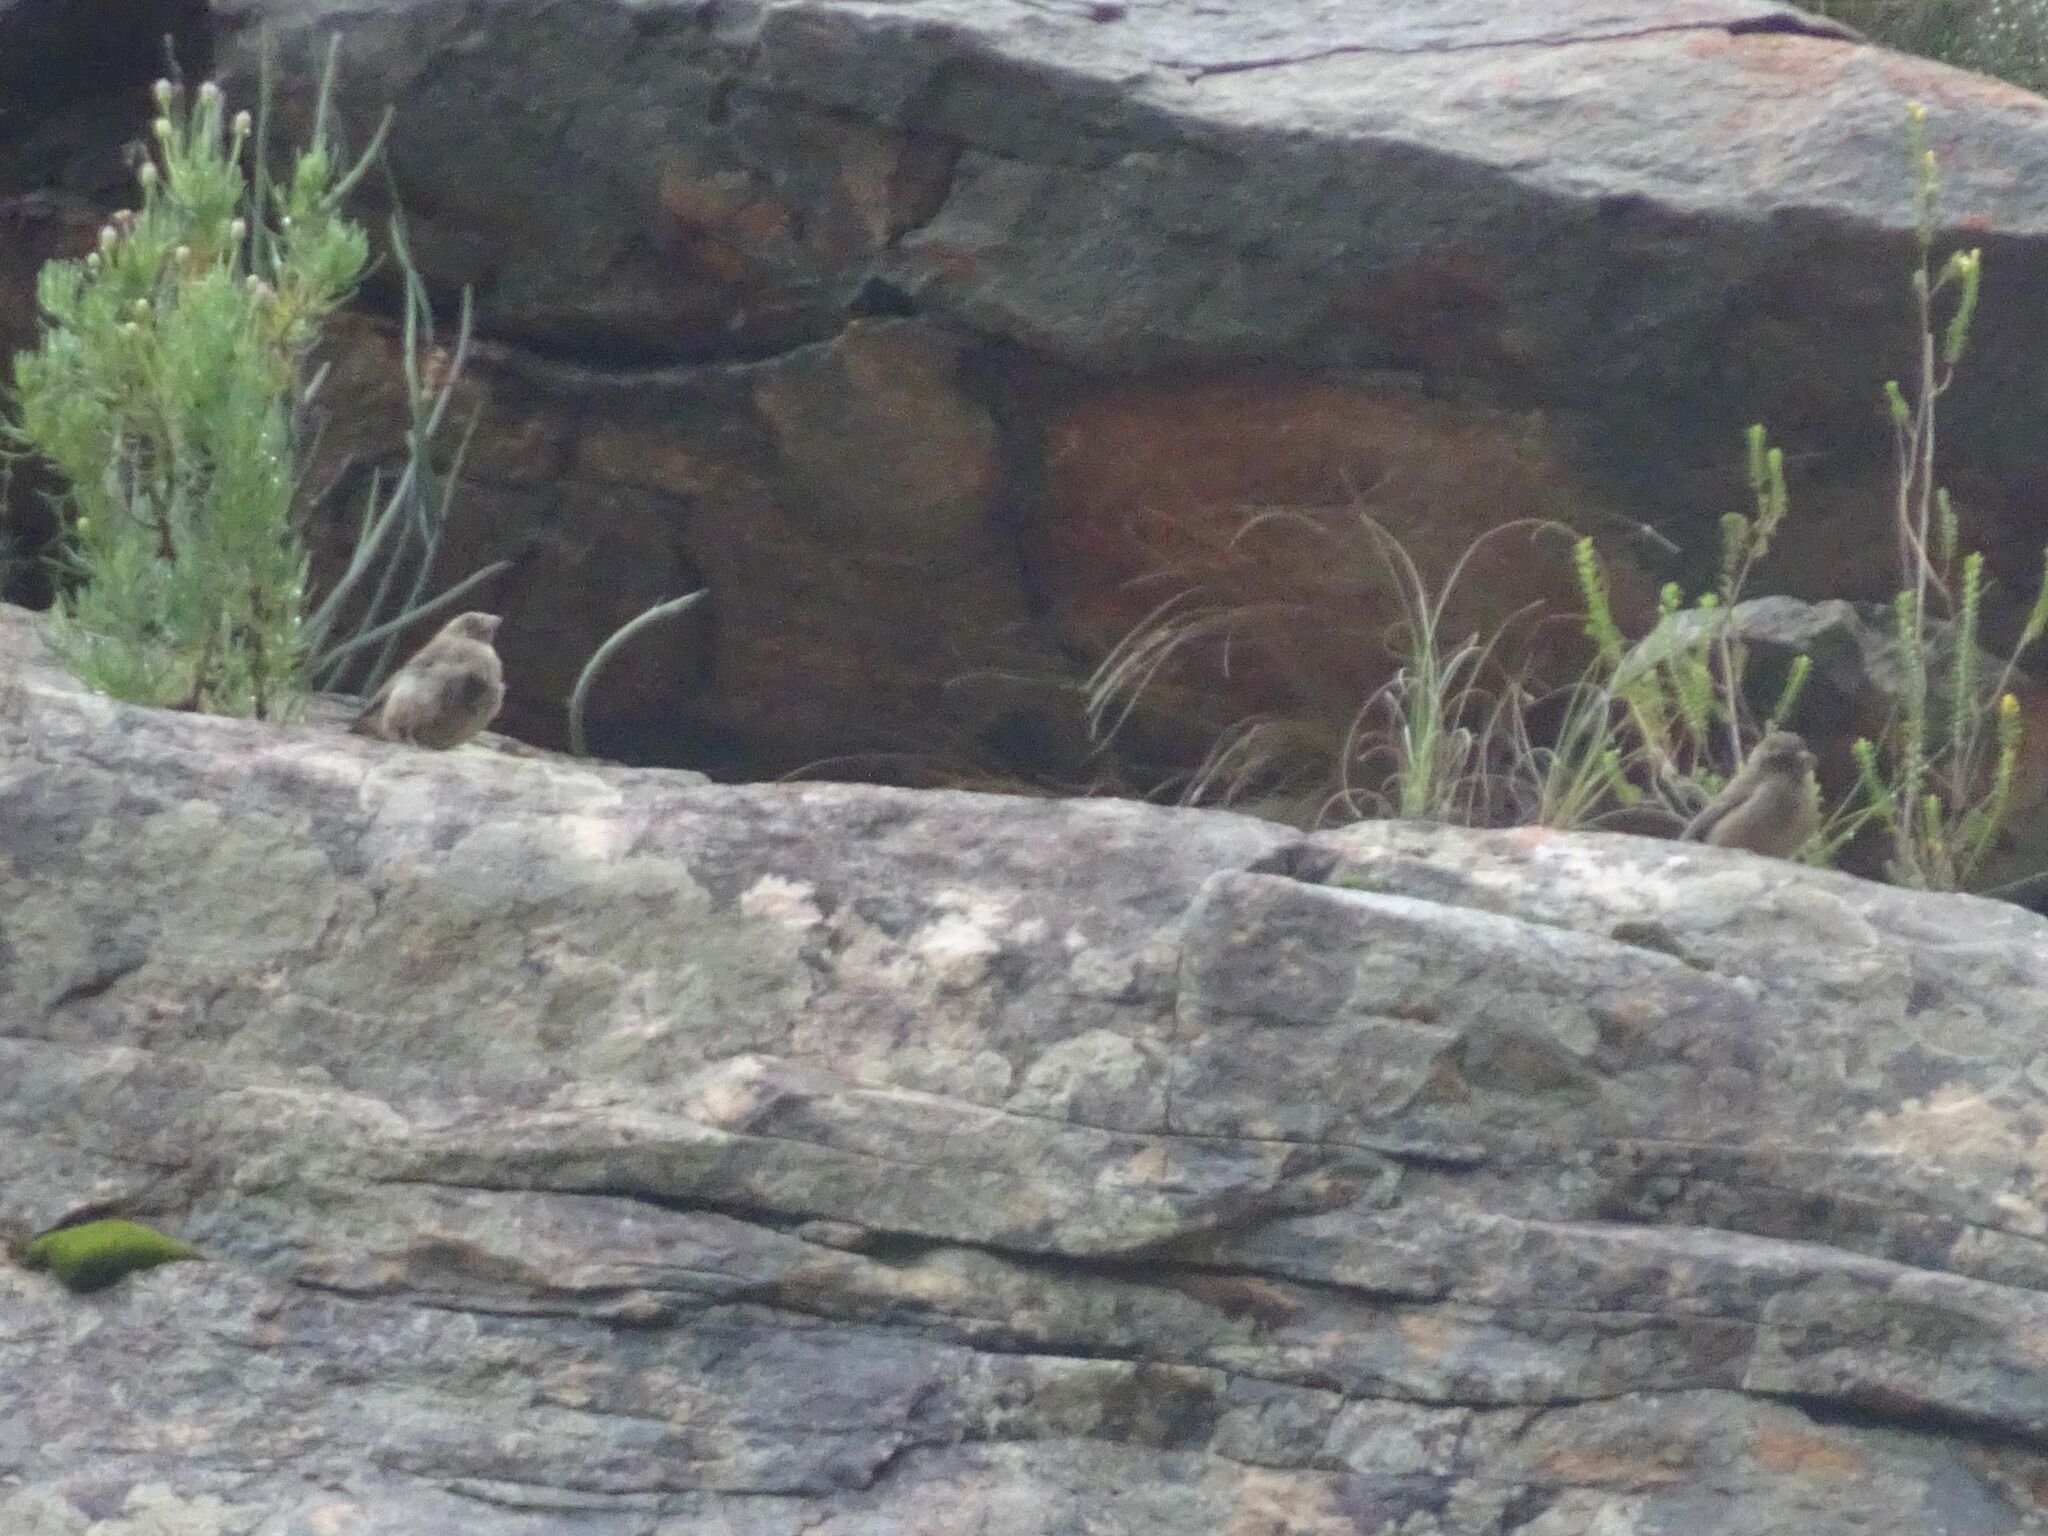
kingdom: Animalia
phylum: Chordata
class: Aves
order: Passeriformes
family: Fringillidae
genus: Crithagra
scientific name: Crithagra gularis
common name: Streaky-headed seedeater
